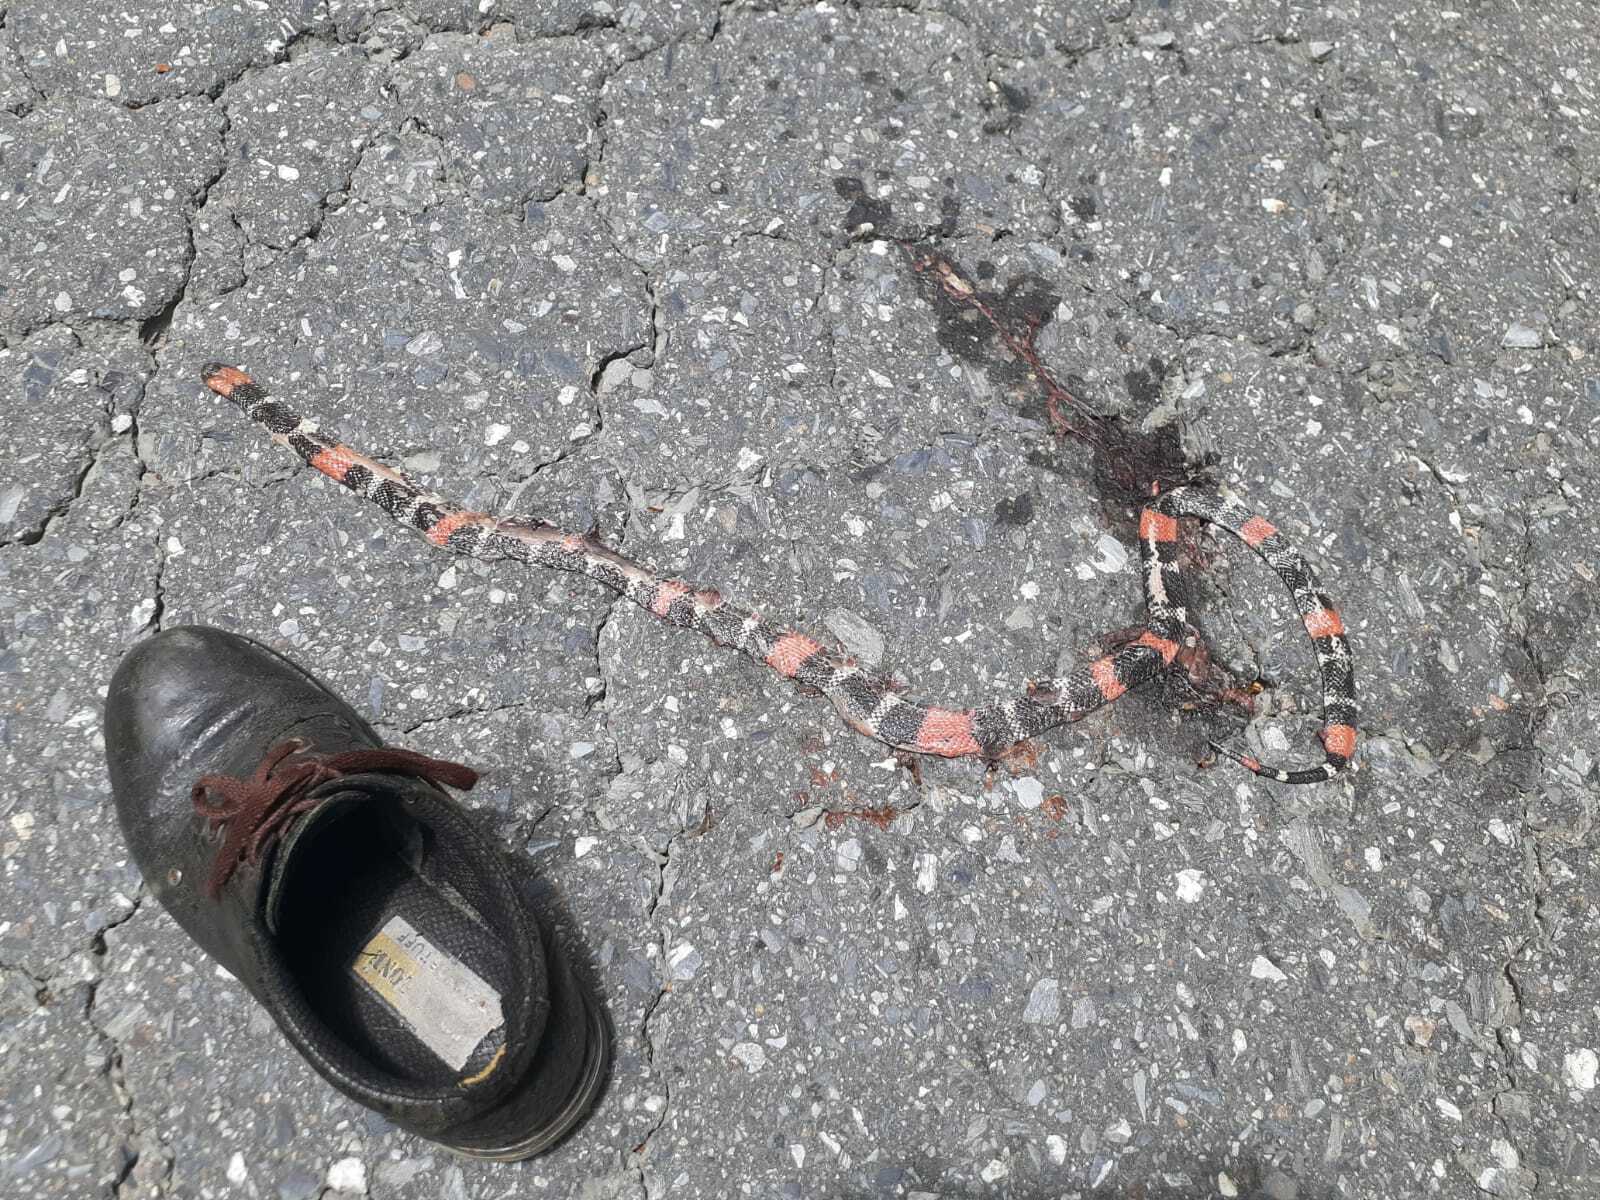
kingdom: Animalia
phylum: Chordata
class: Squamata
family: Elapidae
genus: Micrurus
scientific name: Micrurus diutius
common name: Trinidad ribbon coral snake
